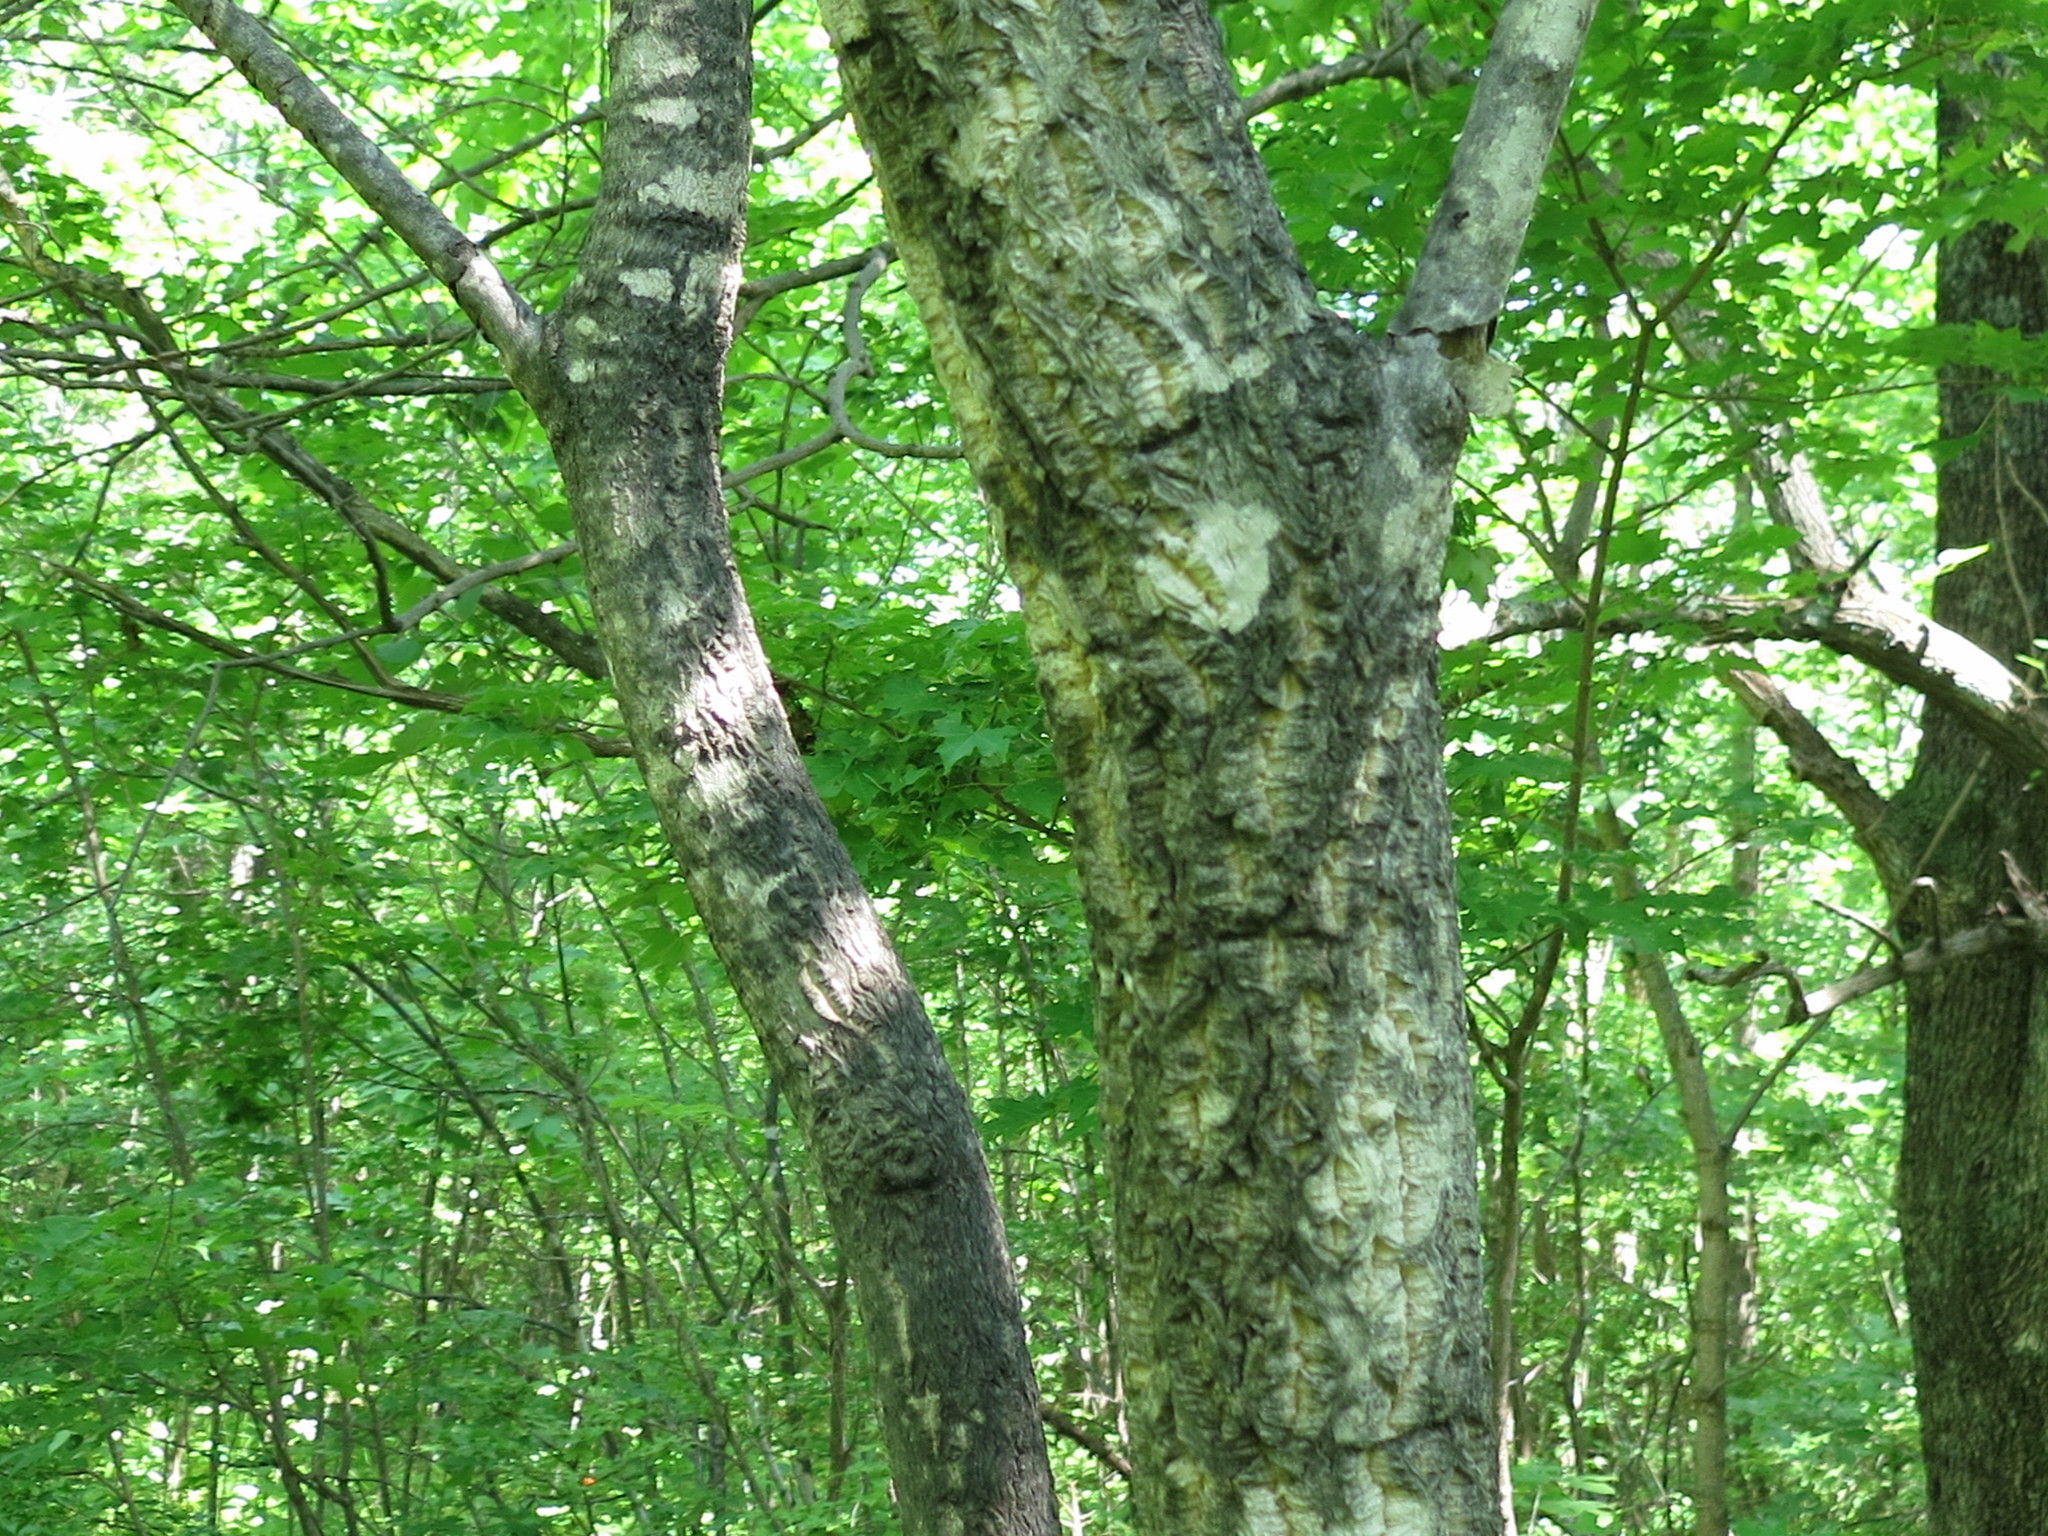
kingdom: Plantae
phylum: Tracheophyta
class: Magnoliopsida
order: Sapindales
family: Rutaceae
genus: Phellodendron
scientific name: Phellodendron amurense
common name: Amur corktree
